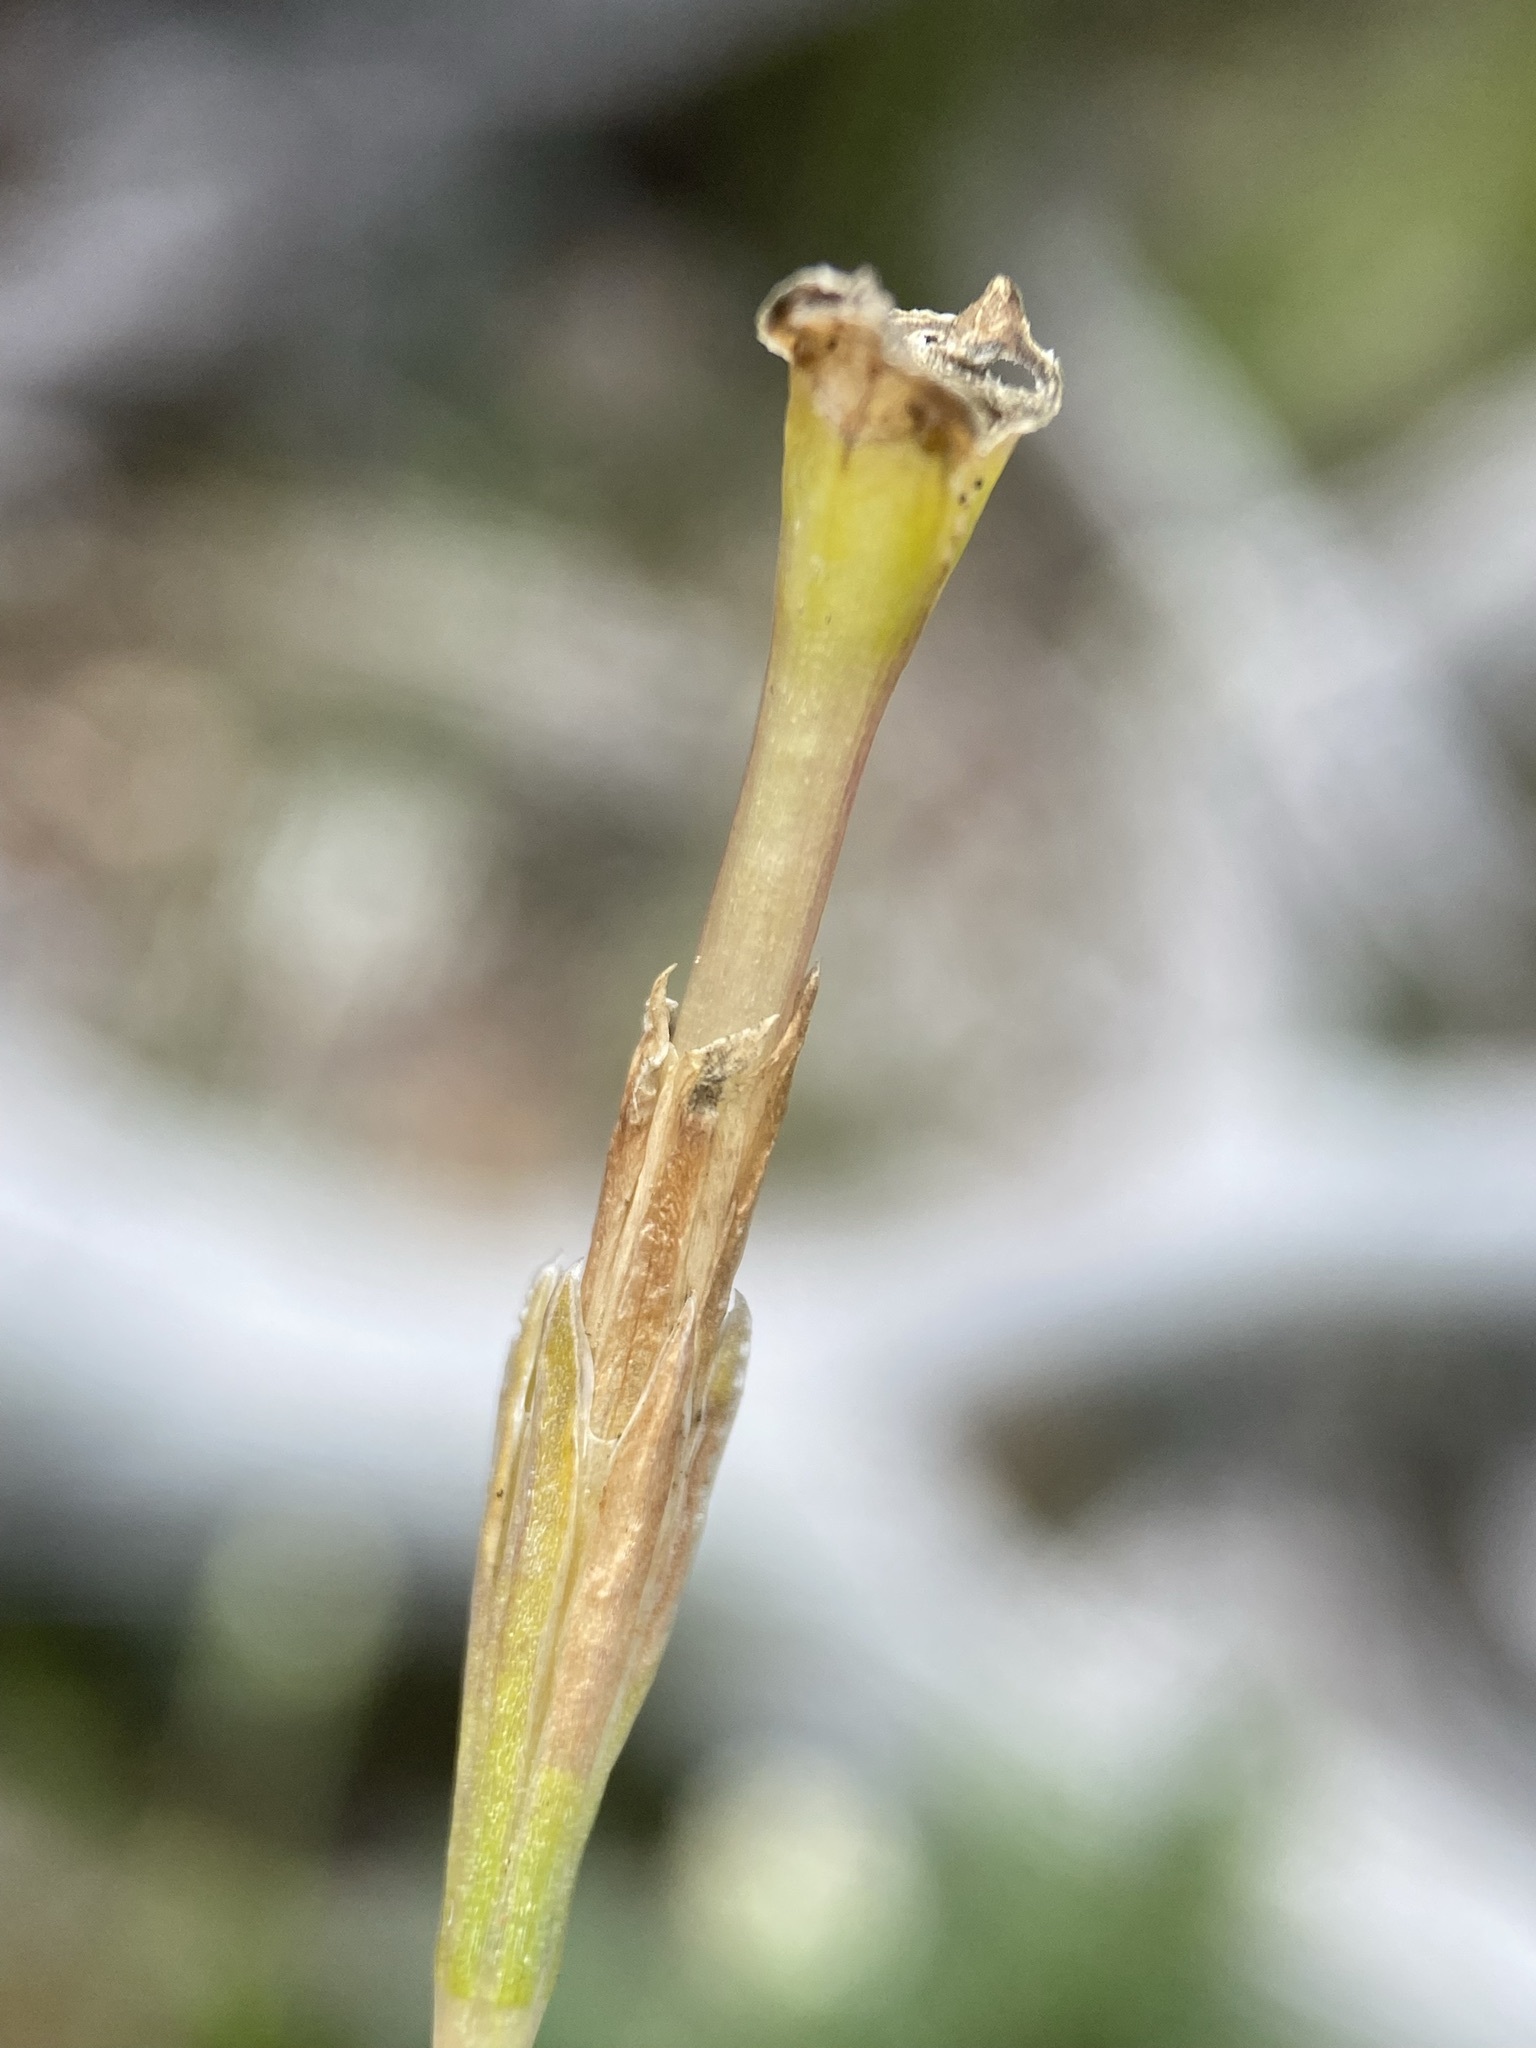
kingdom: Plantae
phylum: Tracheophyta
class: Magnoliopsida
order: Gentianales
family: Gentianaceae
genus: Gentiana
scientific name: Gentiana fremontii
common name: Fremont's gentian
